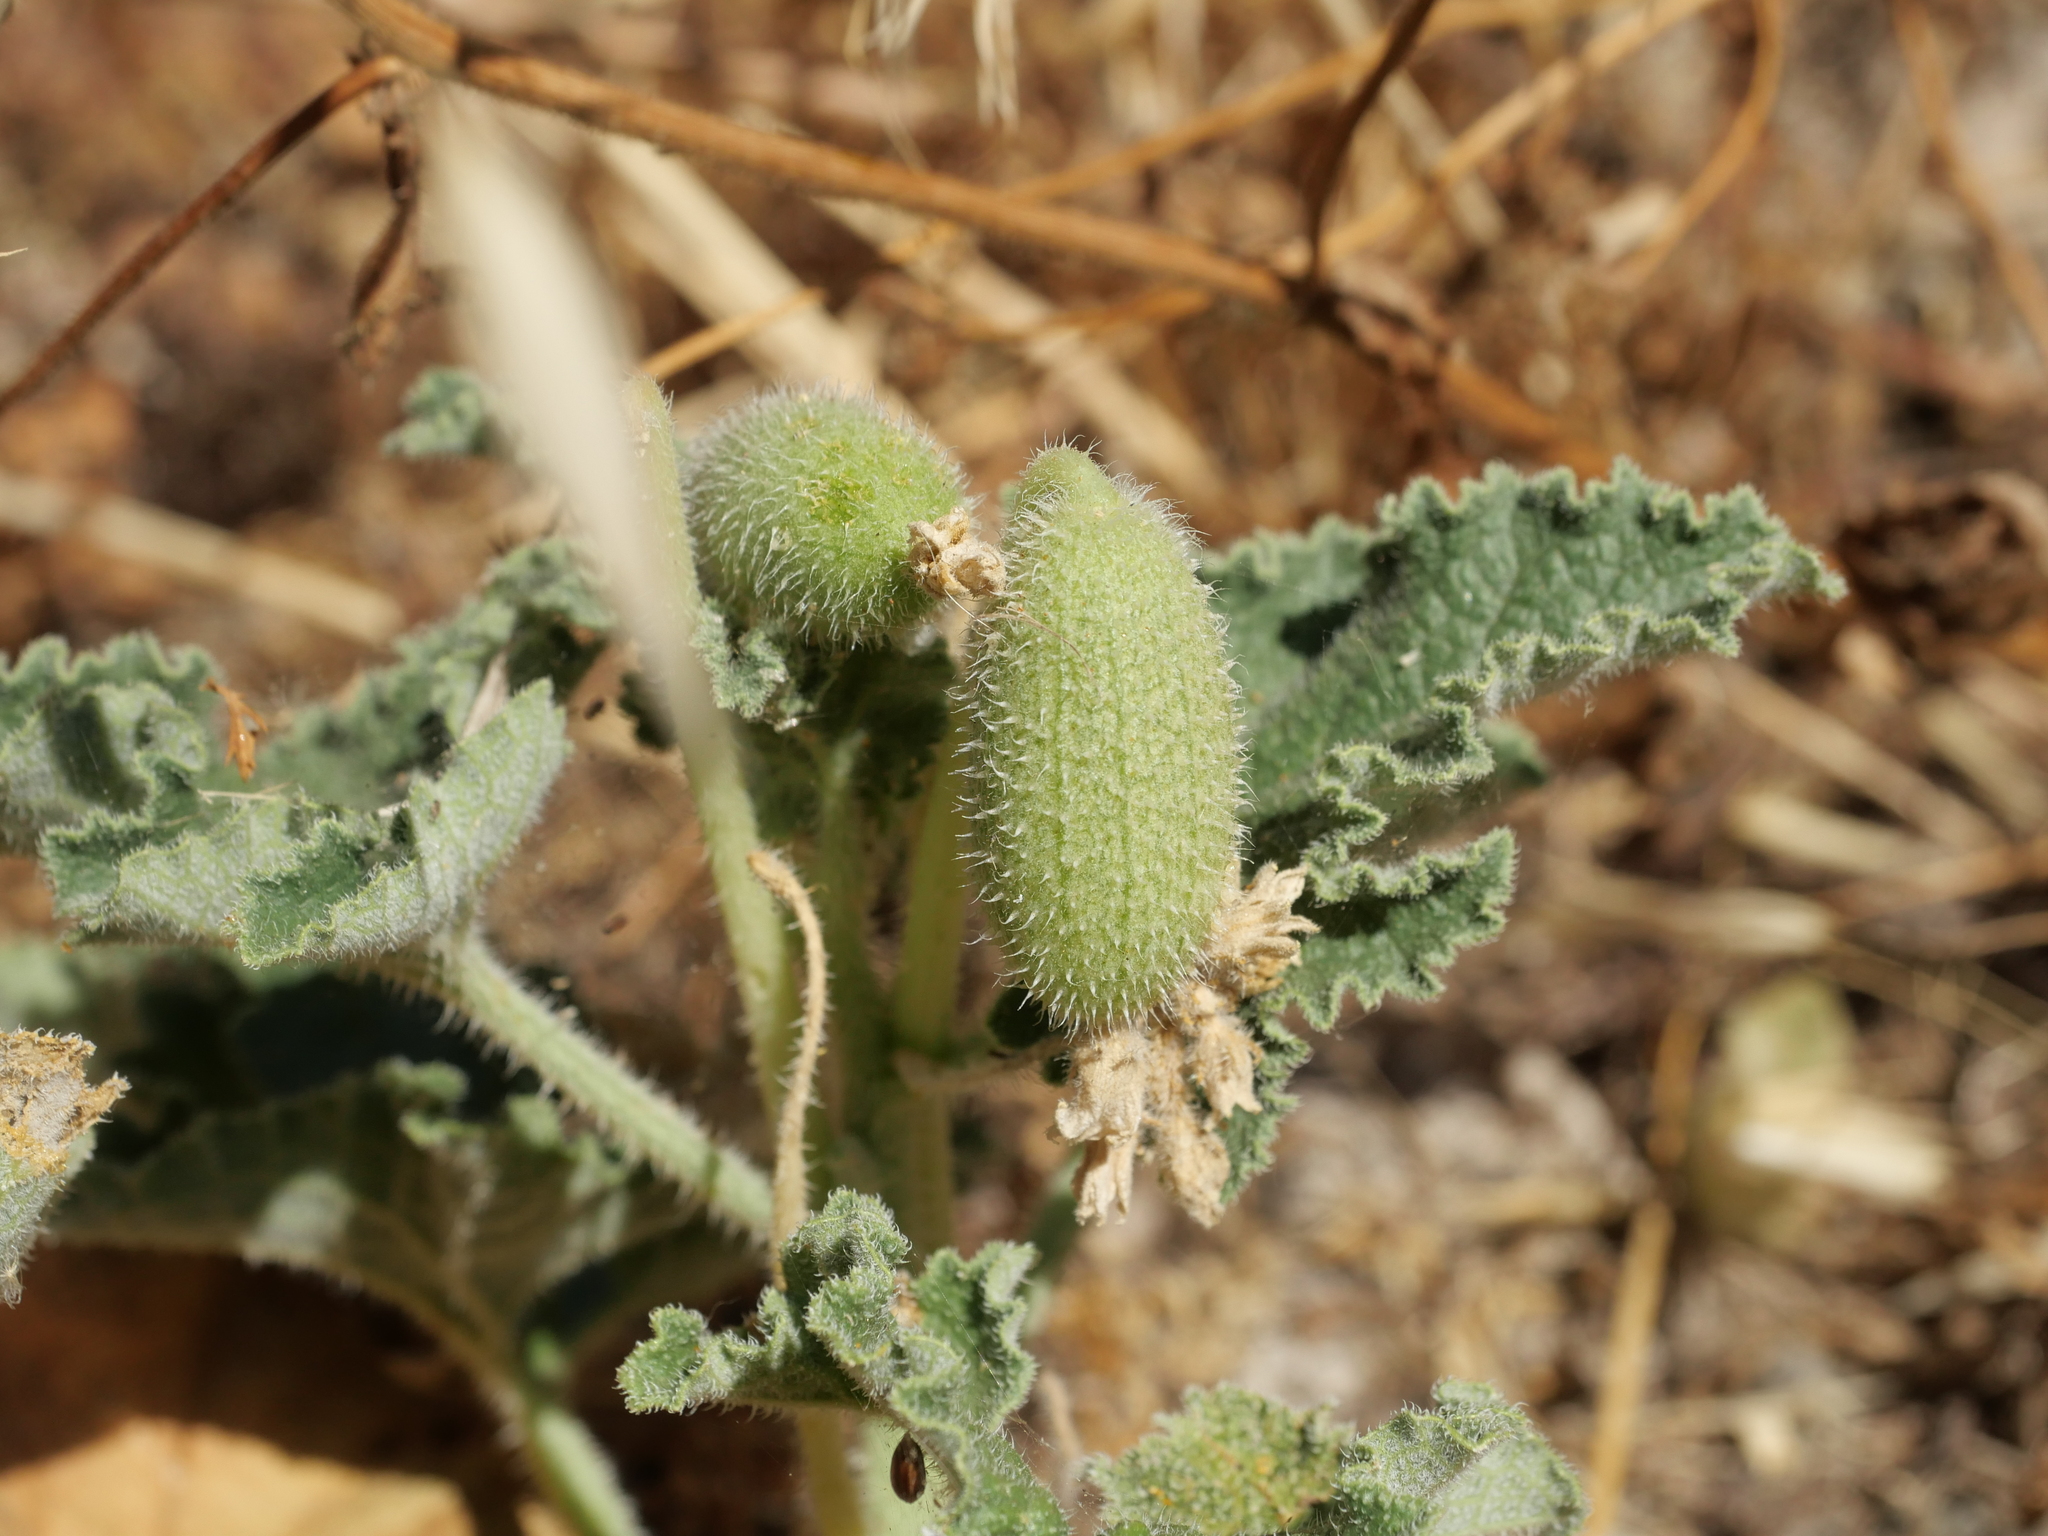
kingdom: Plantae
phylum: Tracheophyta
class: Magnoliopsida
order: Cucurbitales
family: Cucurbitaceae
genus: Ecballium
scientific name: Ecballium elaterium
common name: Squirting cucumber
